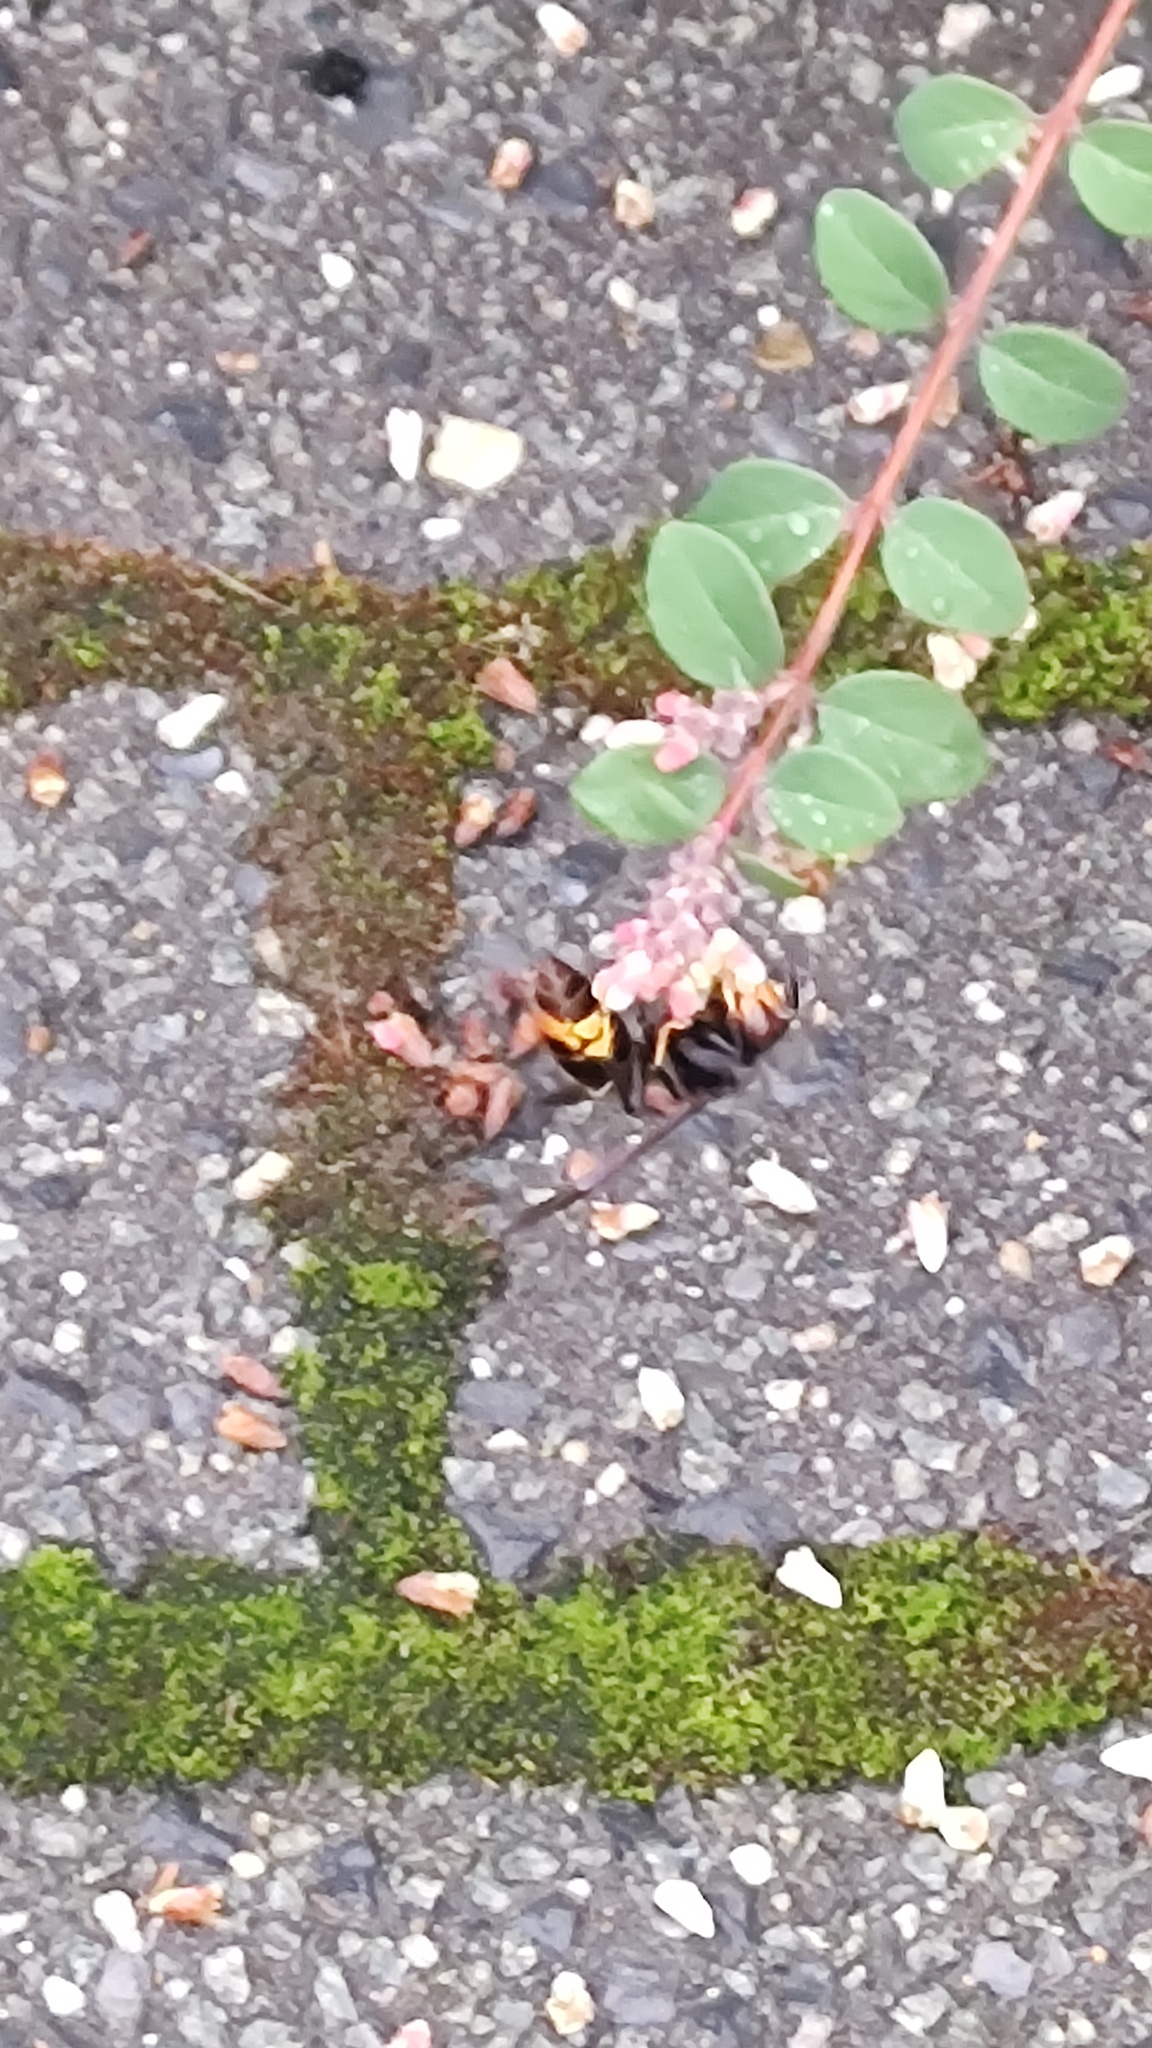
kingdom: Animalia
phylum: Arthropoda
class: Insecta
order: Hymenoptera
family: Vespidae
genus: Vespa
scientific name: Vespa velutina
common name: Asian hornet
